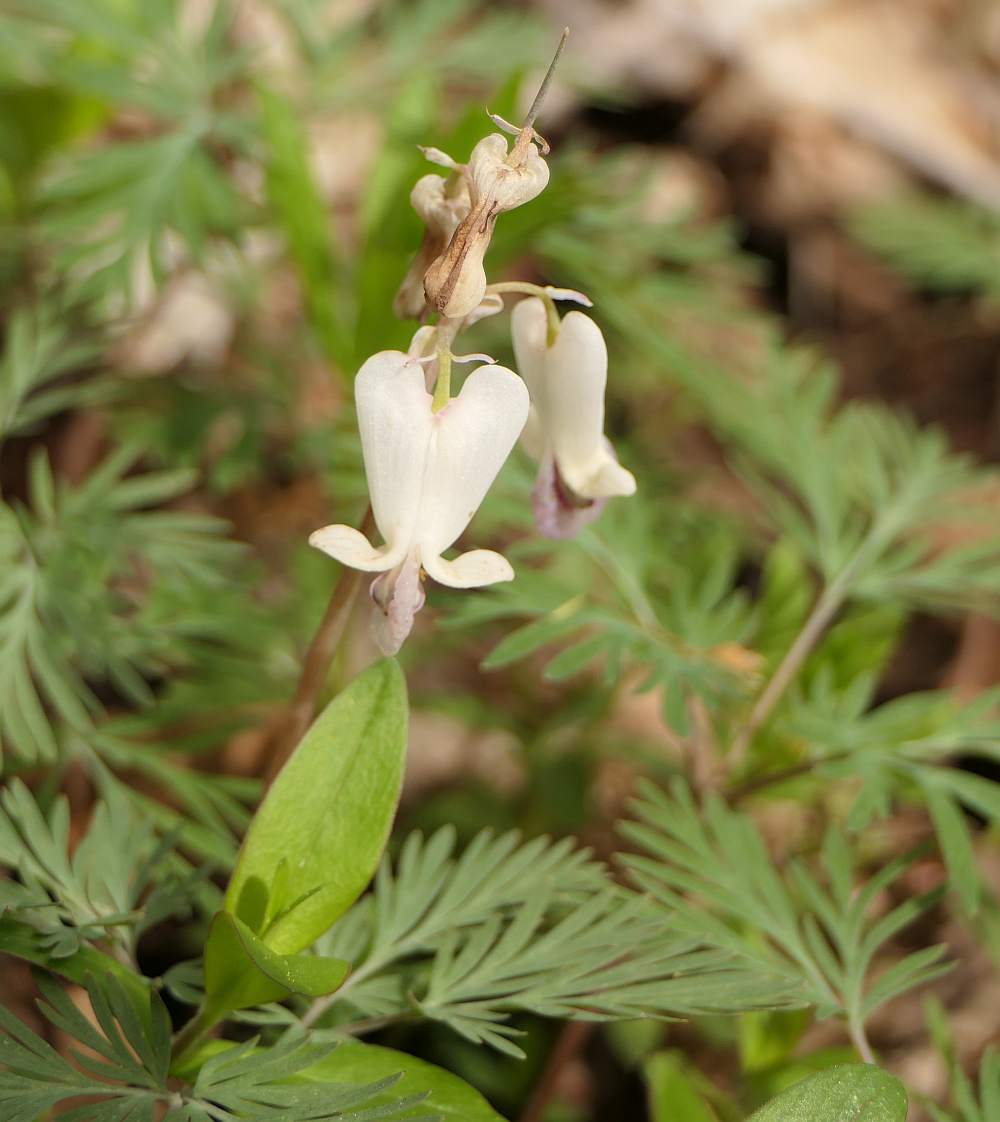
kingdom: Plantae
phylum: Tracheophyta
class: Magnoliopsida
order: Ranunculales
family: Papaveraceae
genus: Dicentra
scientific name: Dicentra canadensis
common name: Squirrel-corn
